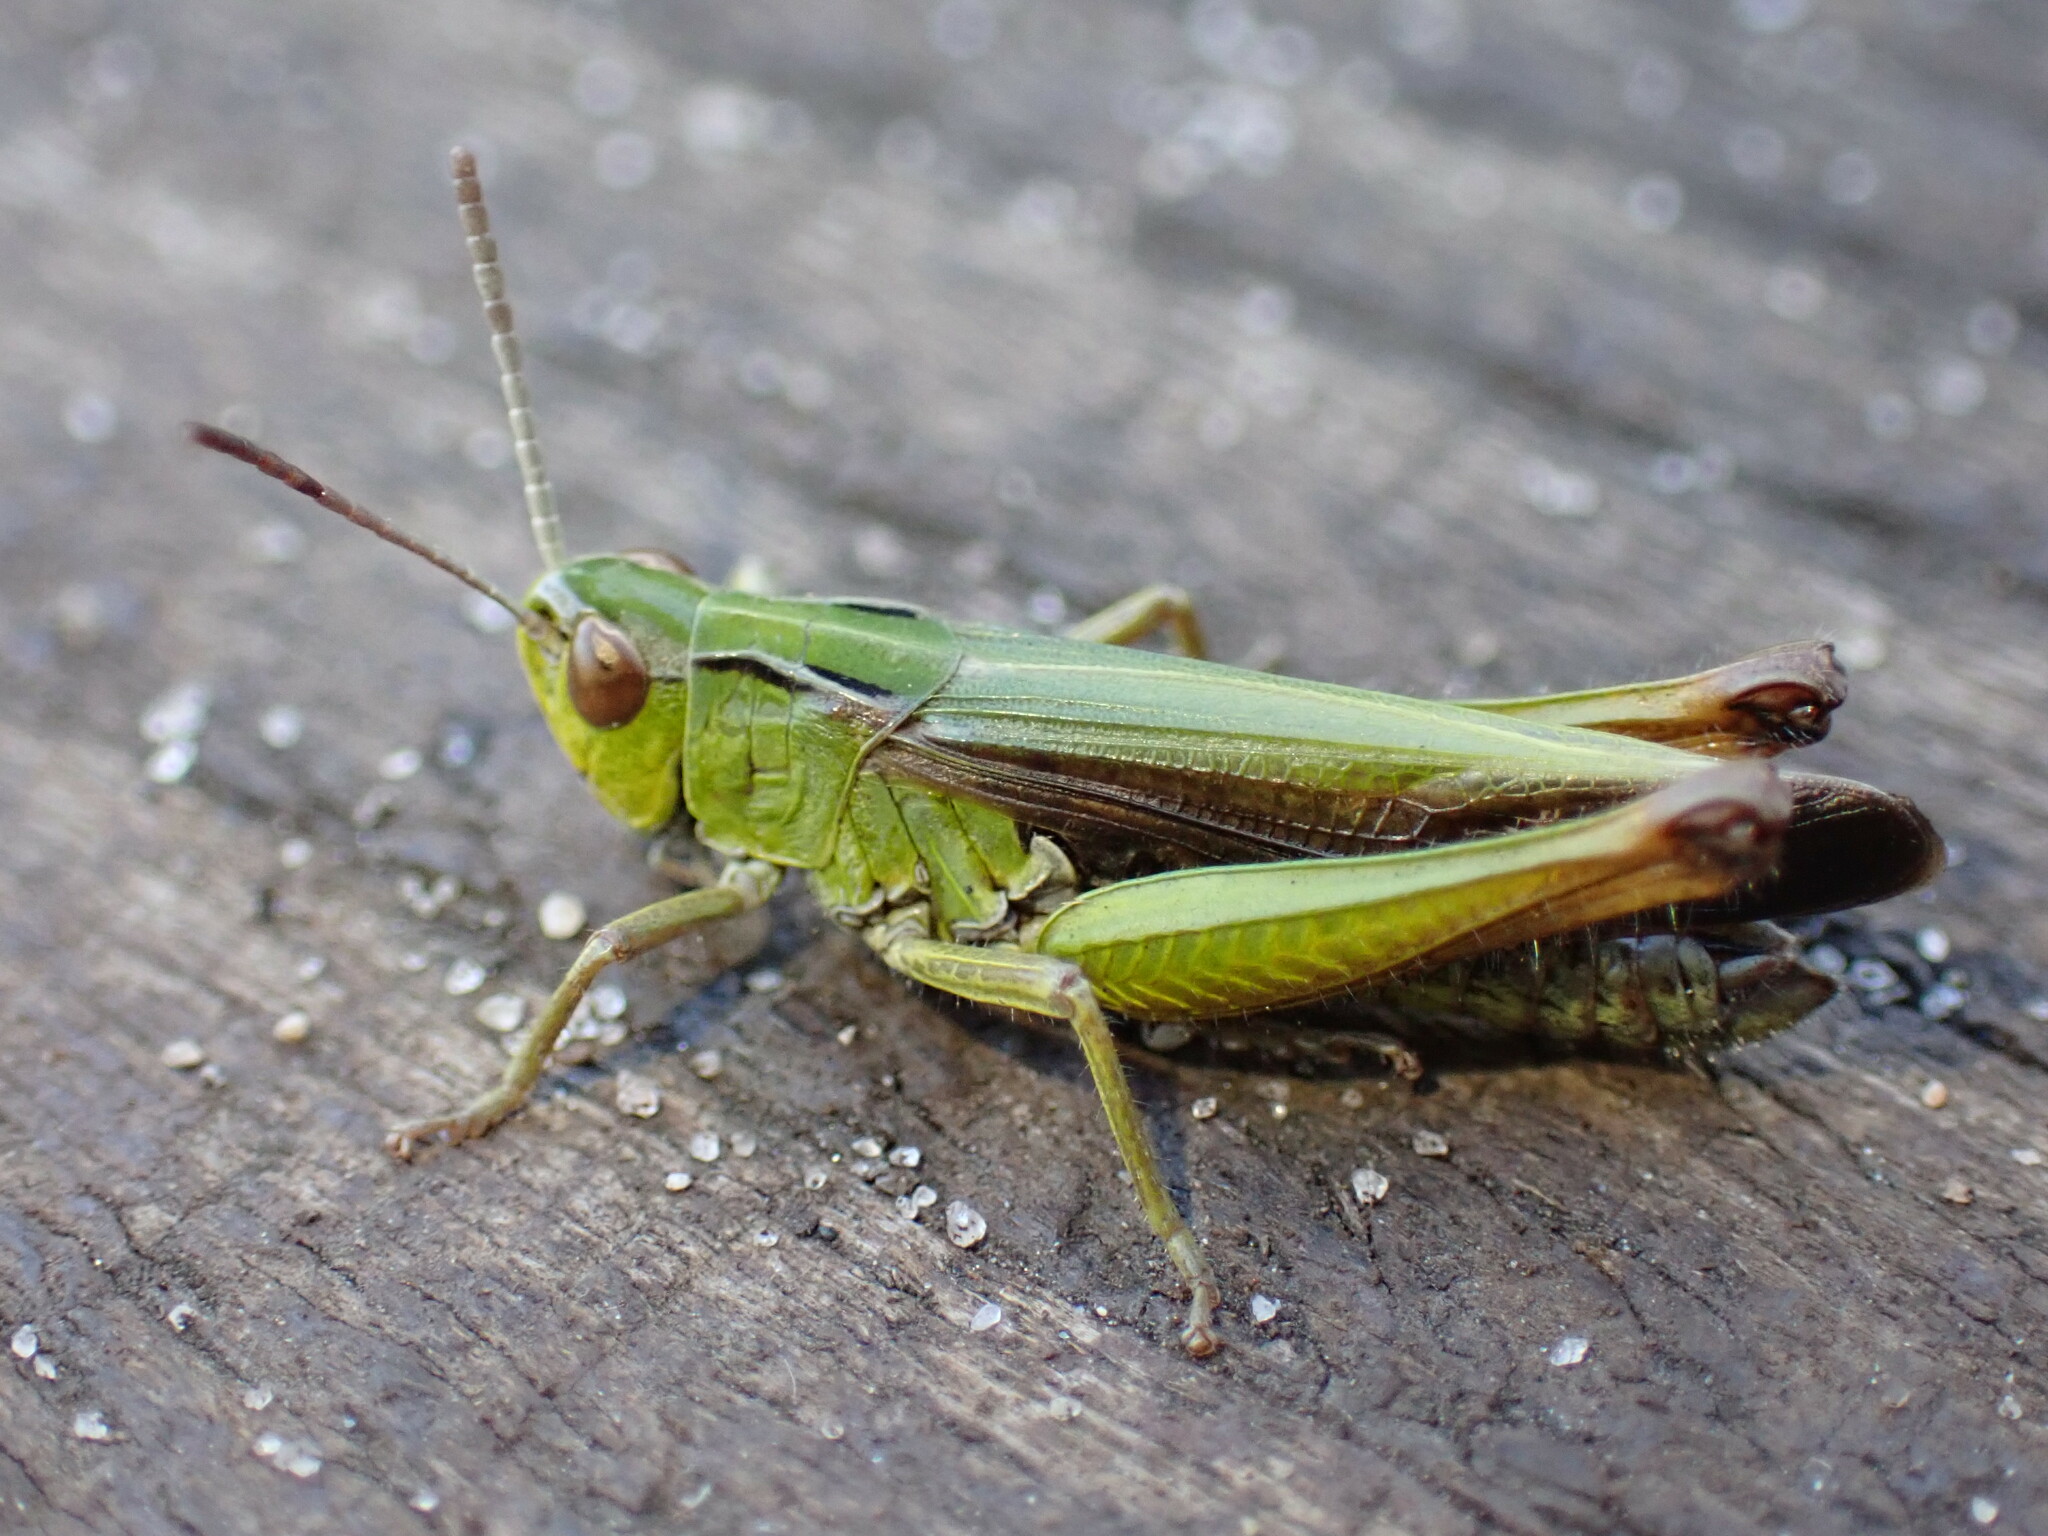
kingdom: Animalia
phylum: Arthropoda
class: Insecta
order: Orthoptera
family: Acrididae
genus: Omocestus
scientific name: Omocestus viridulus
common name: Common green grasshopper
